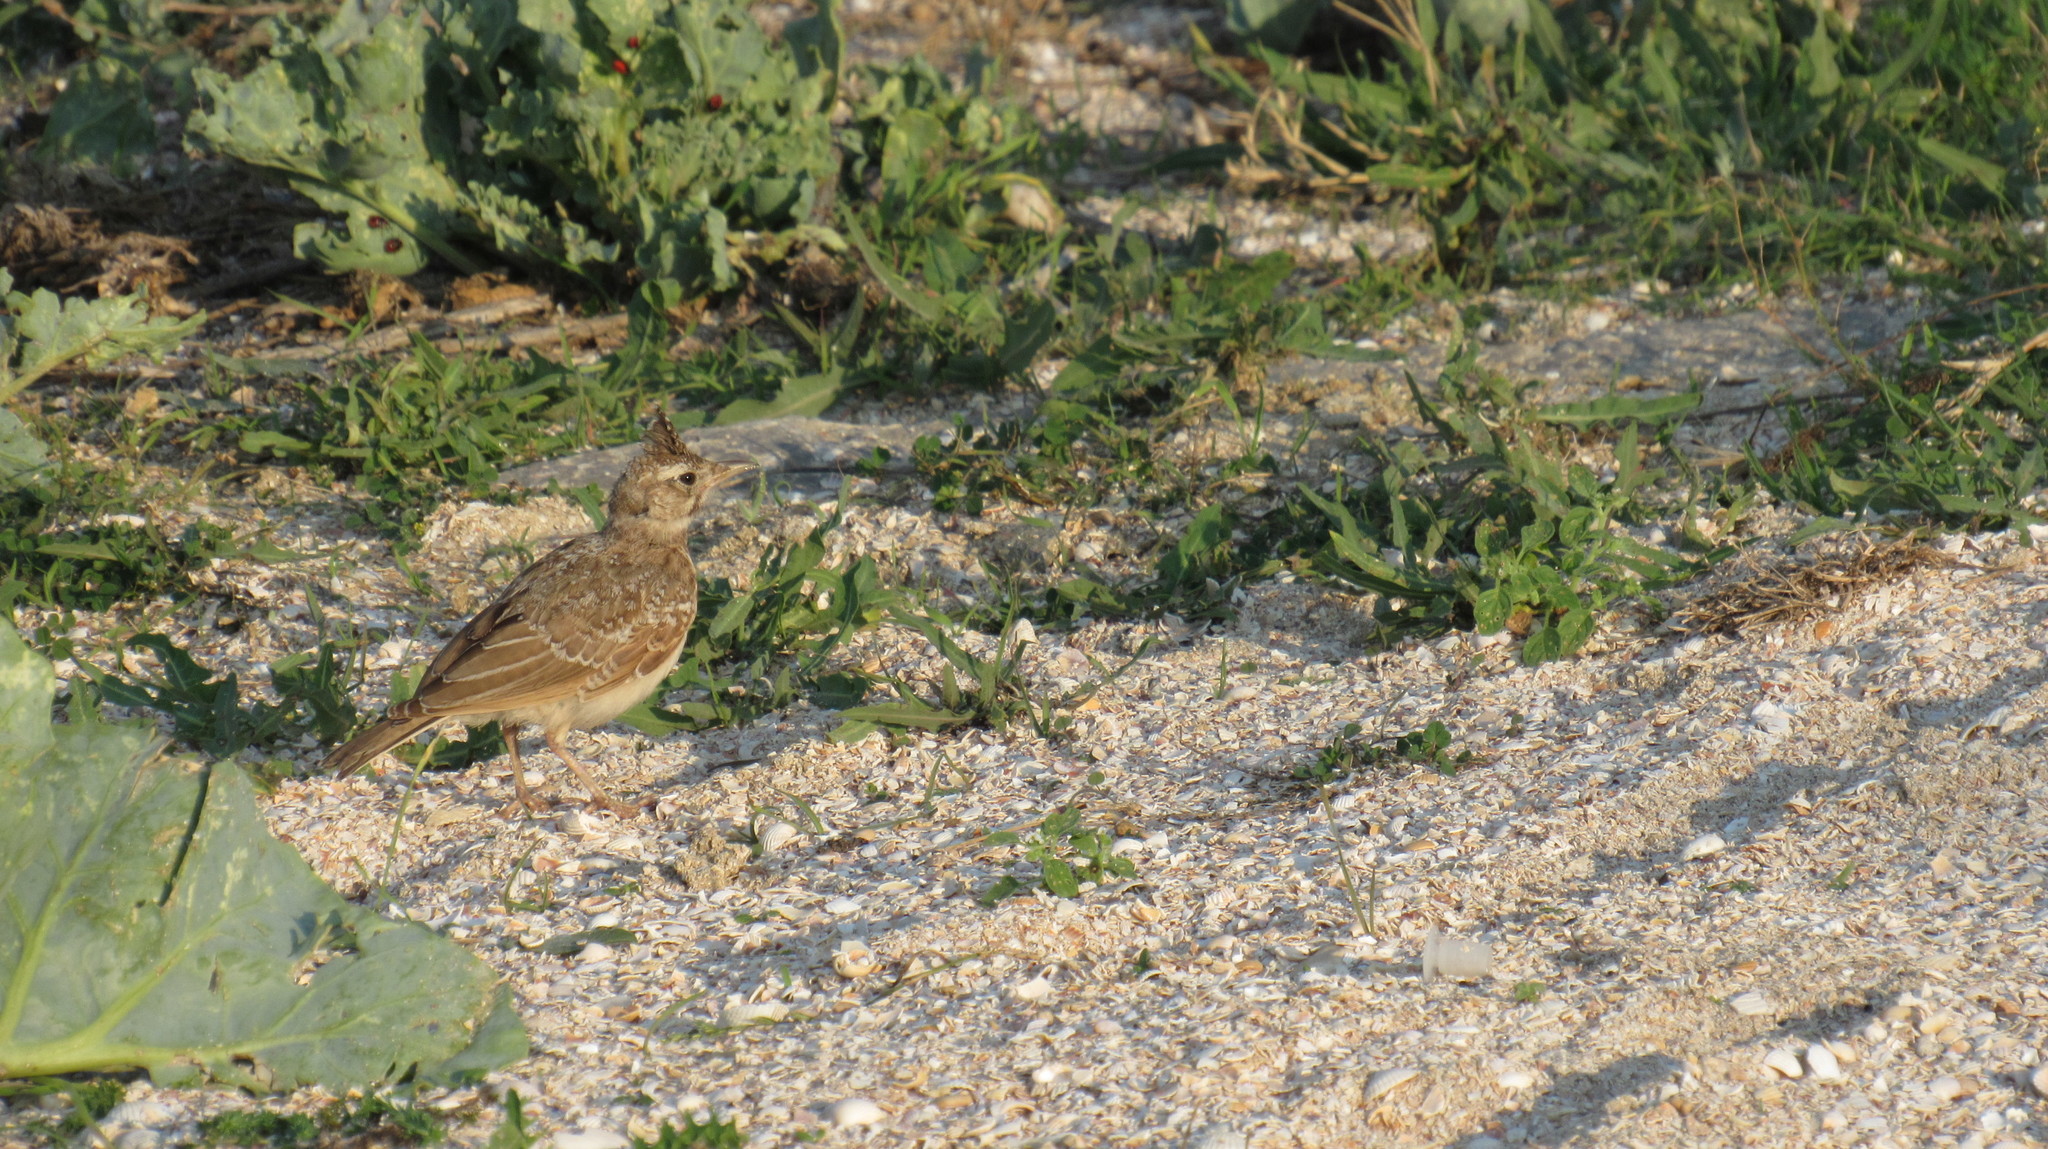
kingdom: Animalia
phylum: Chordata
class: Aves
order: Passeriformes
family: Alaudidae
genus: Galerida
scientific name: Galerida cristata
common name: Crested lark
